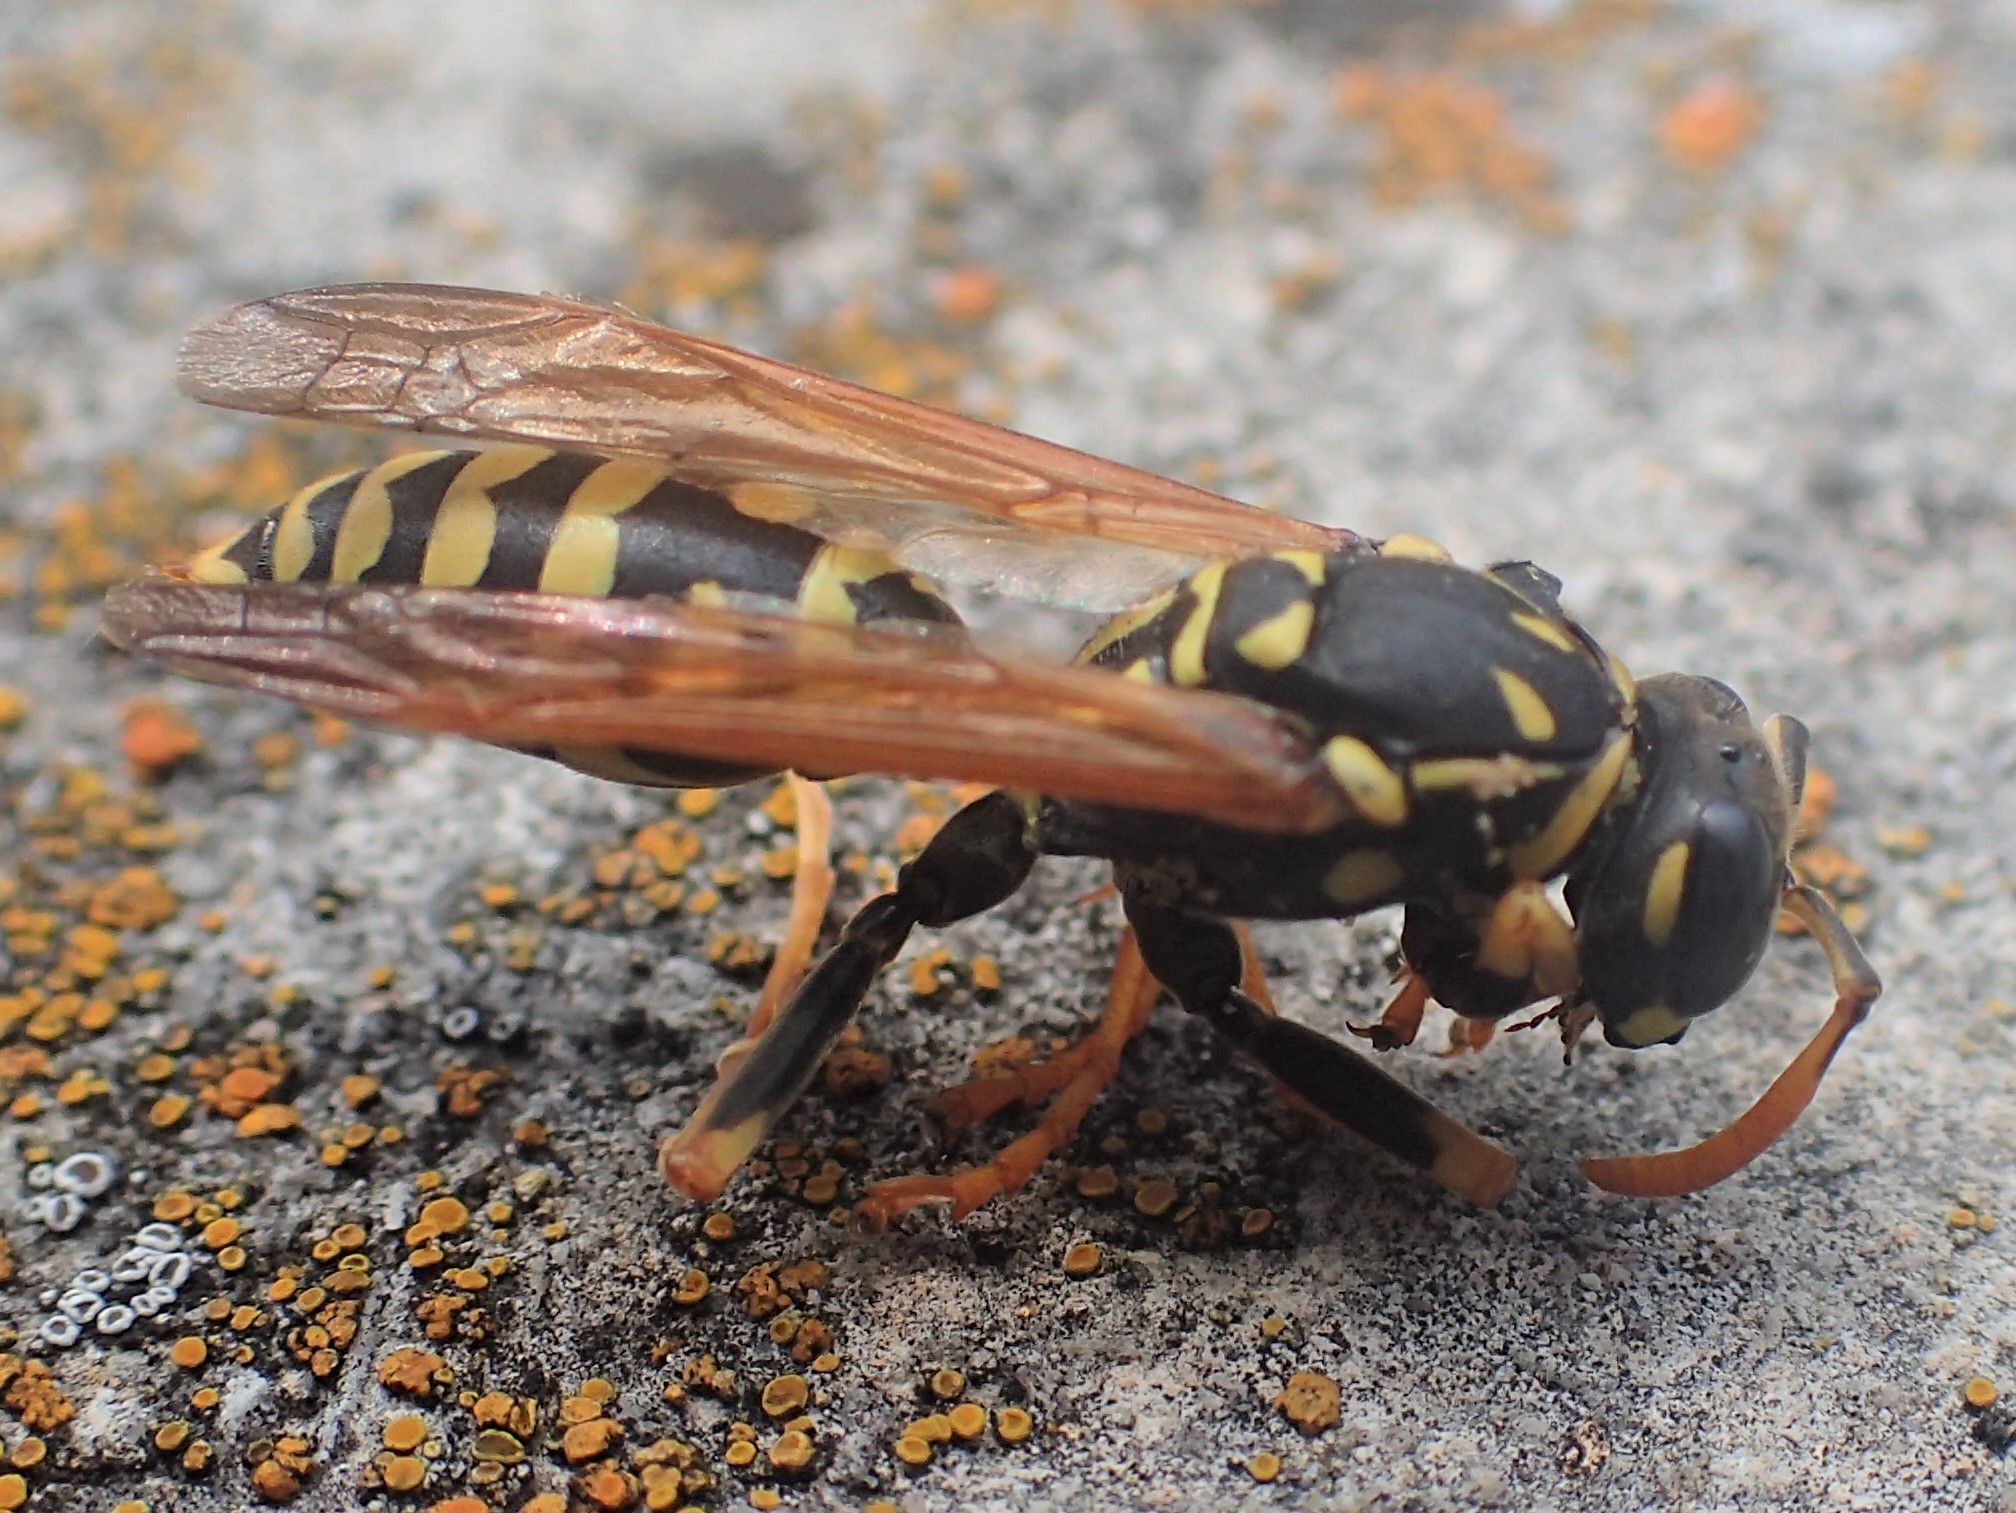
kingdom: Animalia
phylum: Arthropoda
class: Insecta
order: Hymenoptera
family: Eumenidae
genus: Polistes
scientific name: Polistes dominula
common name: Paper wasp
